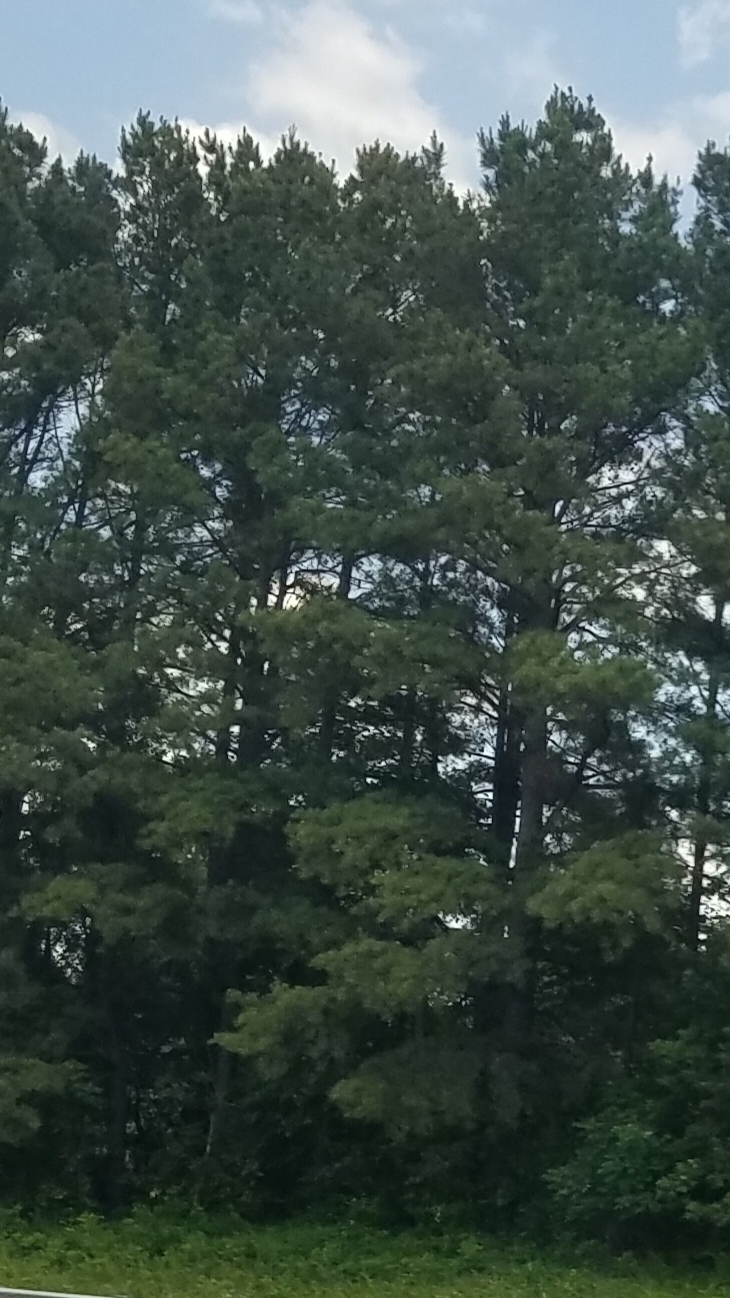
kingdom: Plantae
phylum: Tracheophyta
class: Pinopsida
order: Pinales
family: Pinaceae
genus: Pinus
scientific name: Pinus strobus
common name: Weymouth pine
